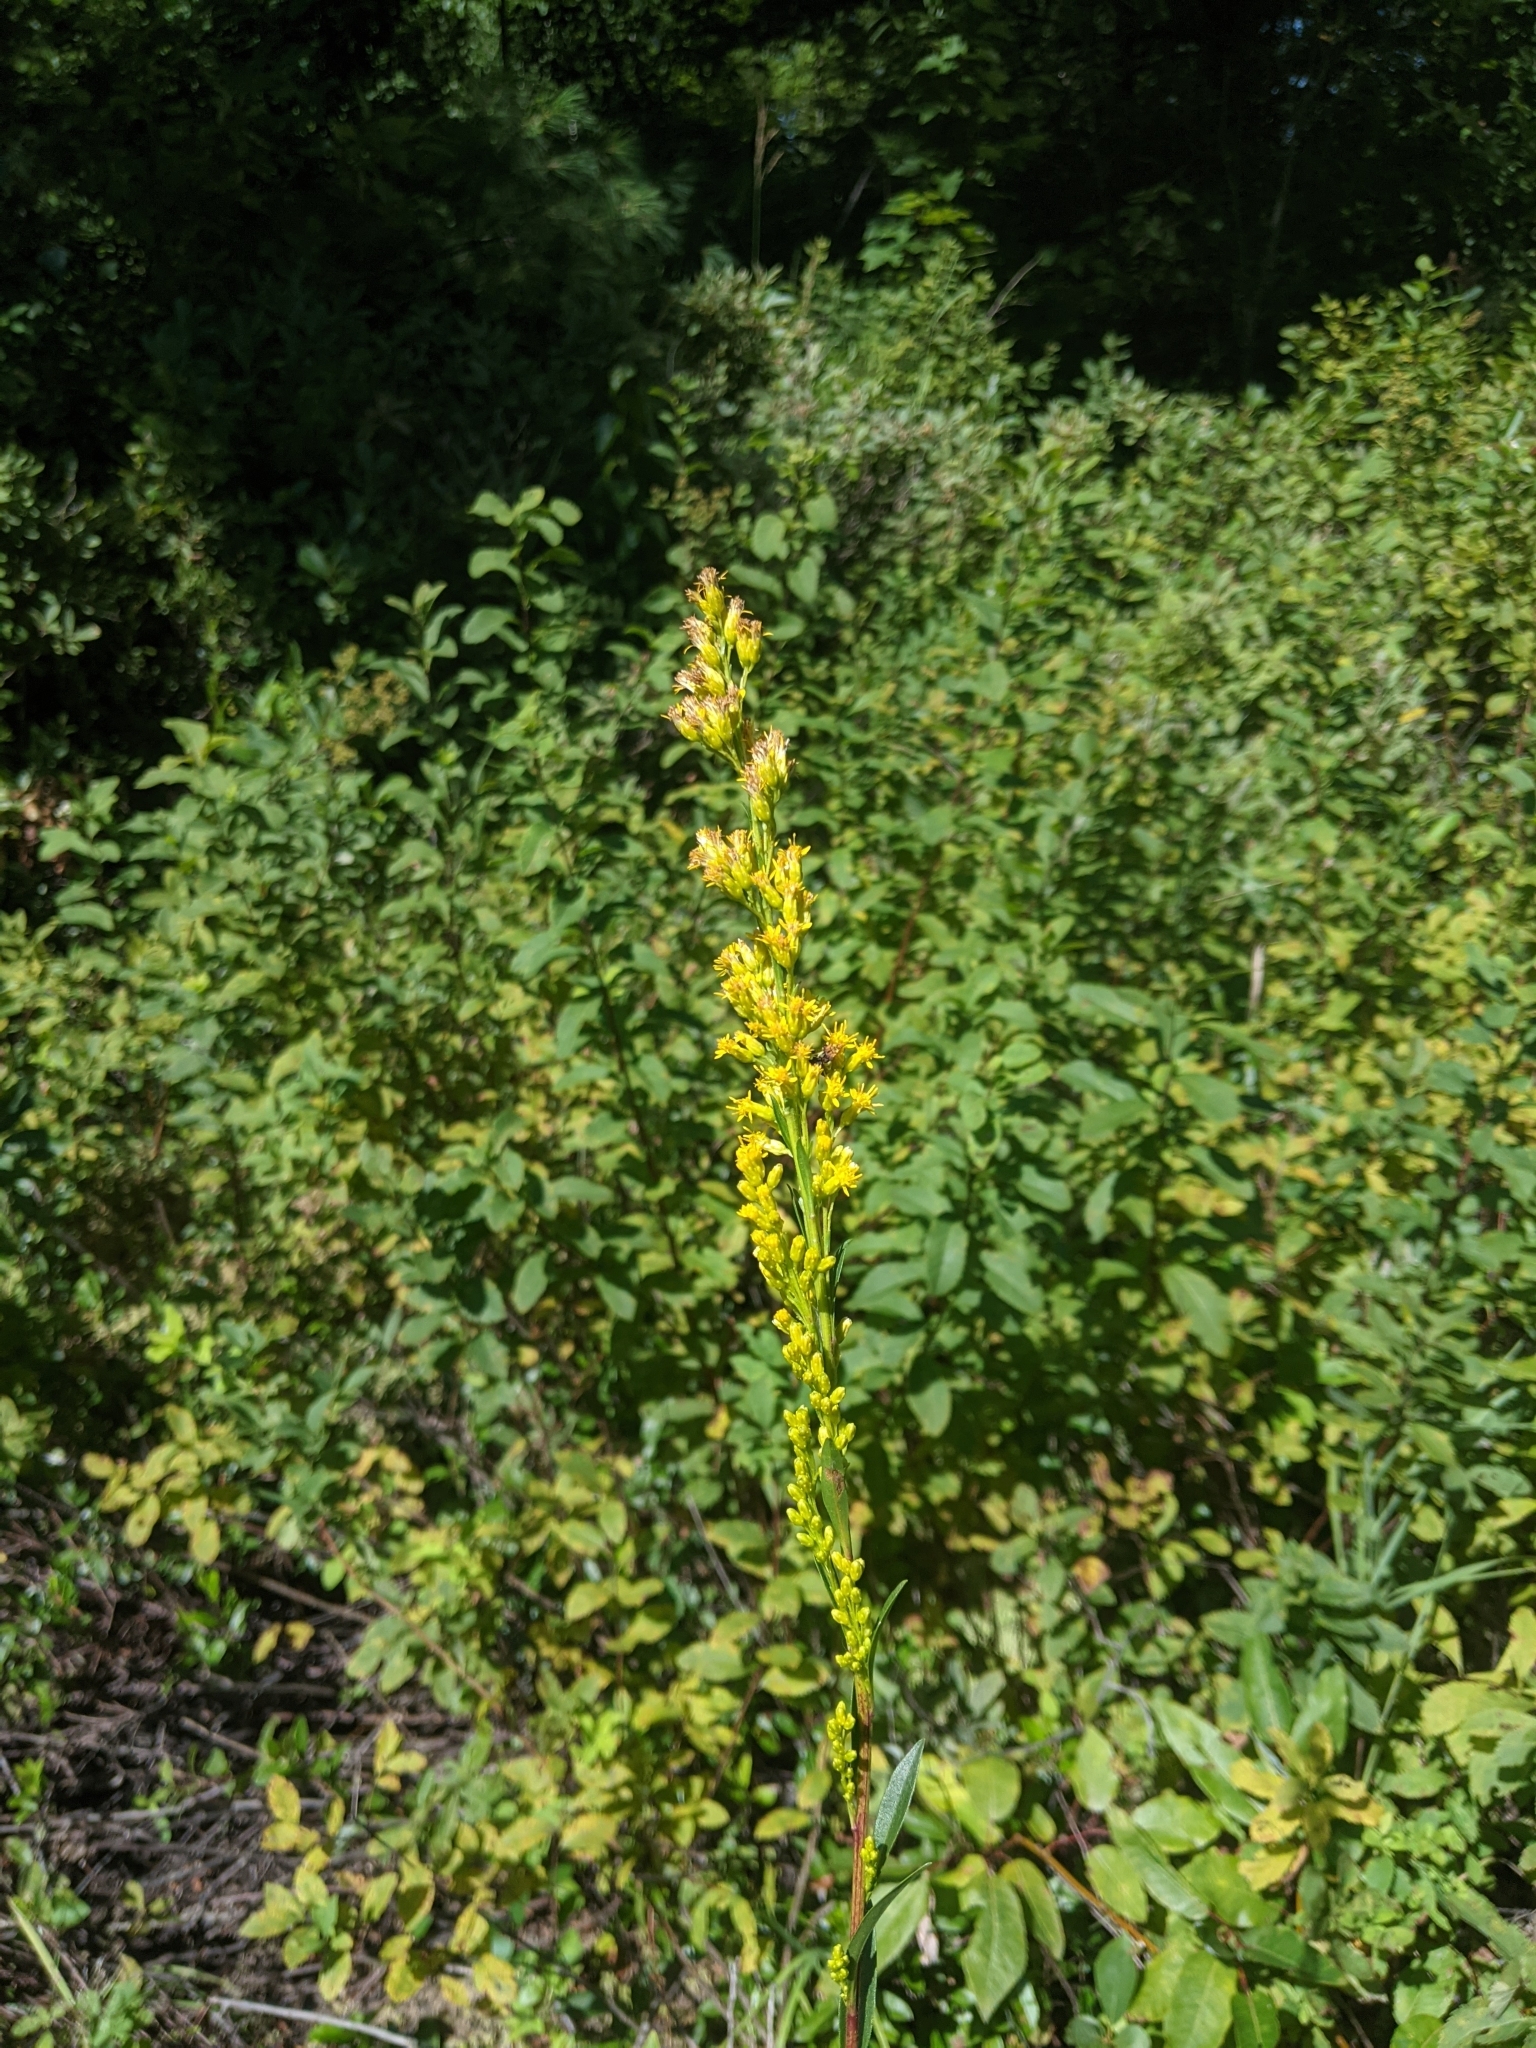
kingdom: Plantae
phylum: Tracheophyta
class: Magnoliopsida
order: Asterales
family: Asteraceae
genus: Solidago
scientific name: Solidago uliginosa
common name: Bog goldenrod
